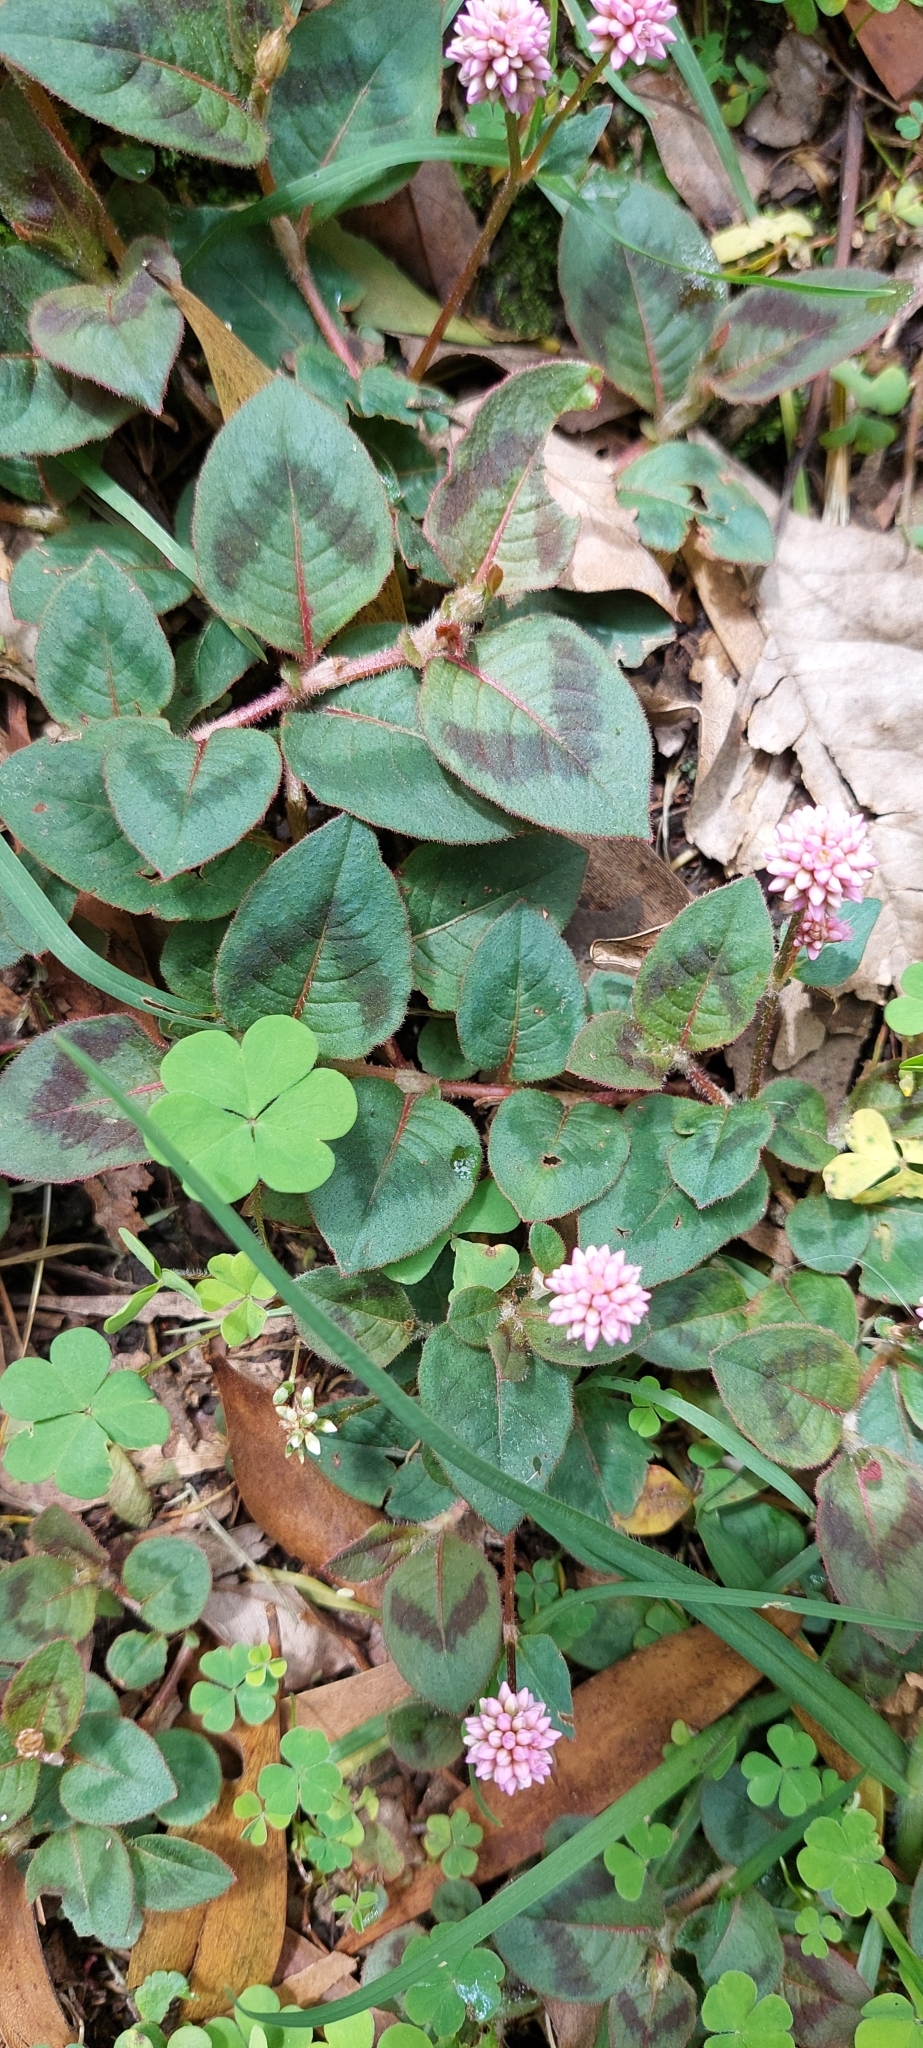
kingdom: Plantae
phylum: Tracheophyta
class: Magnoliopsida
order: Caryophyllales
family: Polygonaceae
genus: Persicaria
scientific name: Persicaria capitata
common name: Pinkhead smartweed
